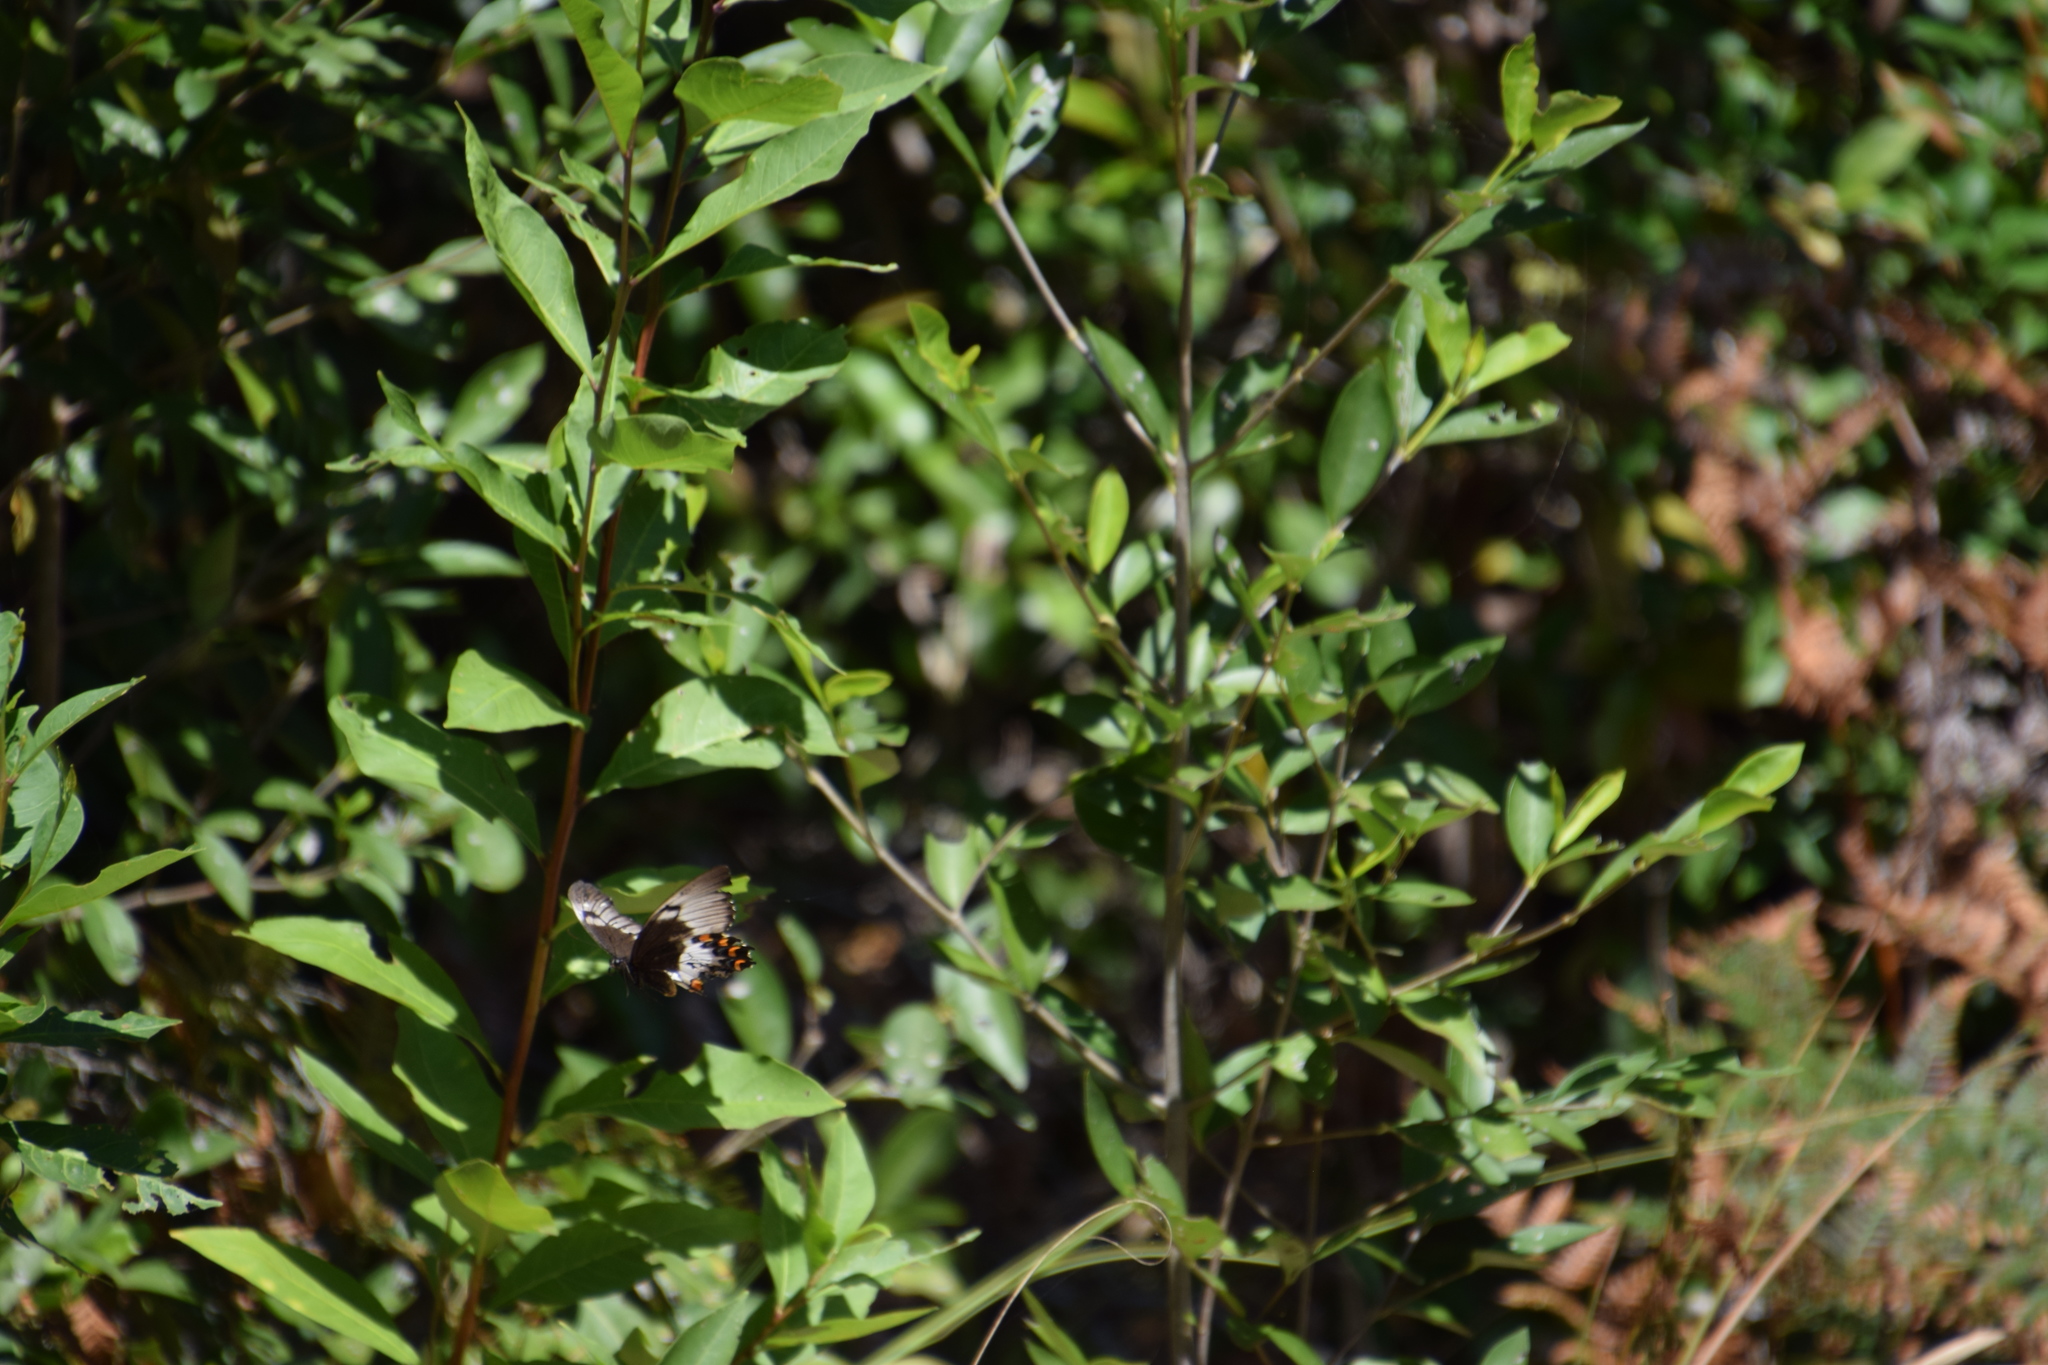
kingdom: Animalia
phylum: Arthropoda
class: Insecta
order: Lepidoptera
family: Papilionidae
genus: Papilio
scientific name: Papilio aegeus
